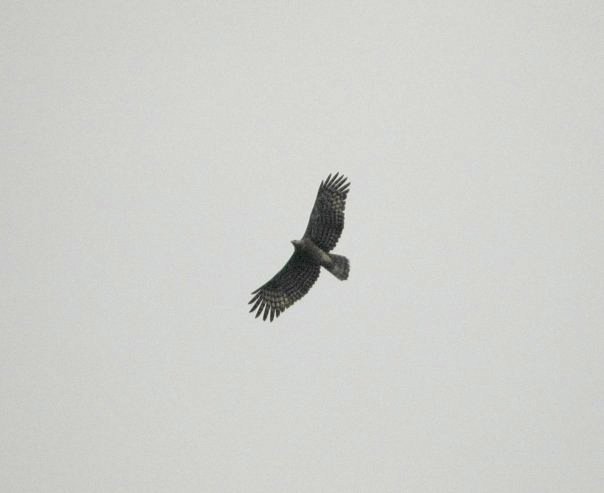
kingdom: Animalia
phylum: Chordata
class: Aves
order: Accipitriformes
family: Accipitridae
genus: Polyboroides
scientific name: Polyboroides radiatus
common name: Madagascar harrier-hawk
